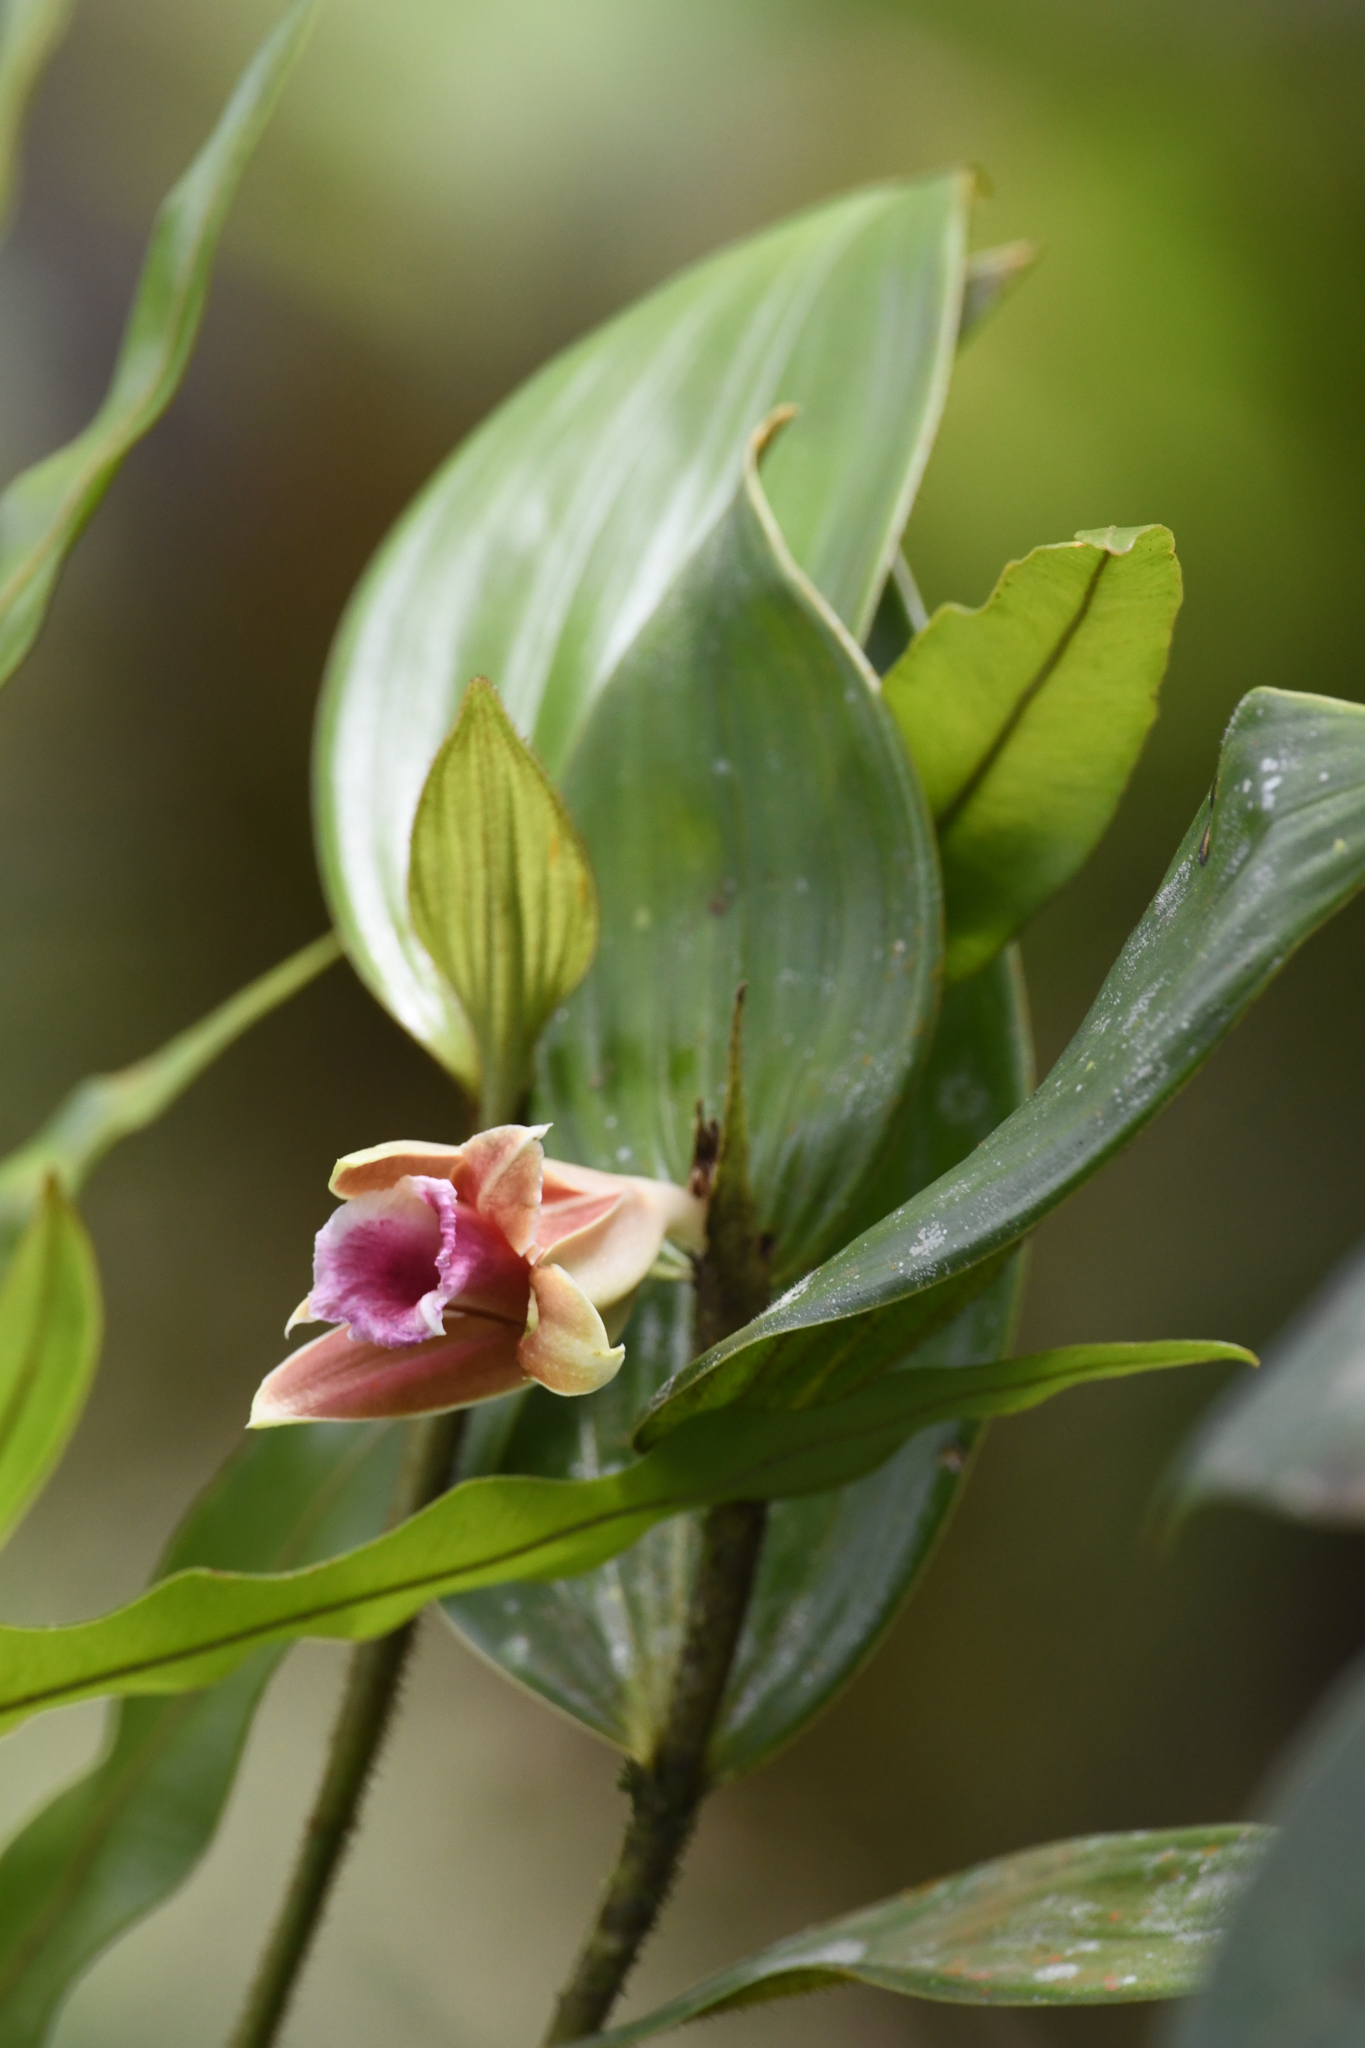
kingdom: Plantae
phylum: Tracheophyta
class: Liliopsida
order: Asparagales
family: Orchidaceae
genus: Sobralia
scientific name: Sobralia atropubescens
